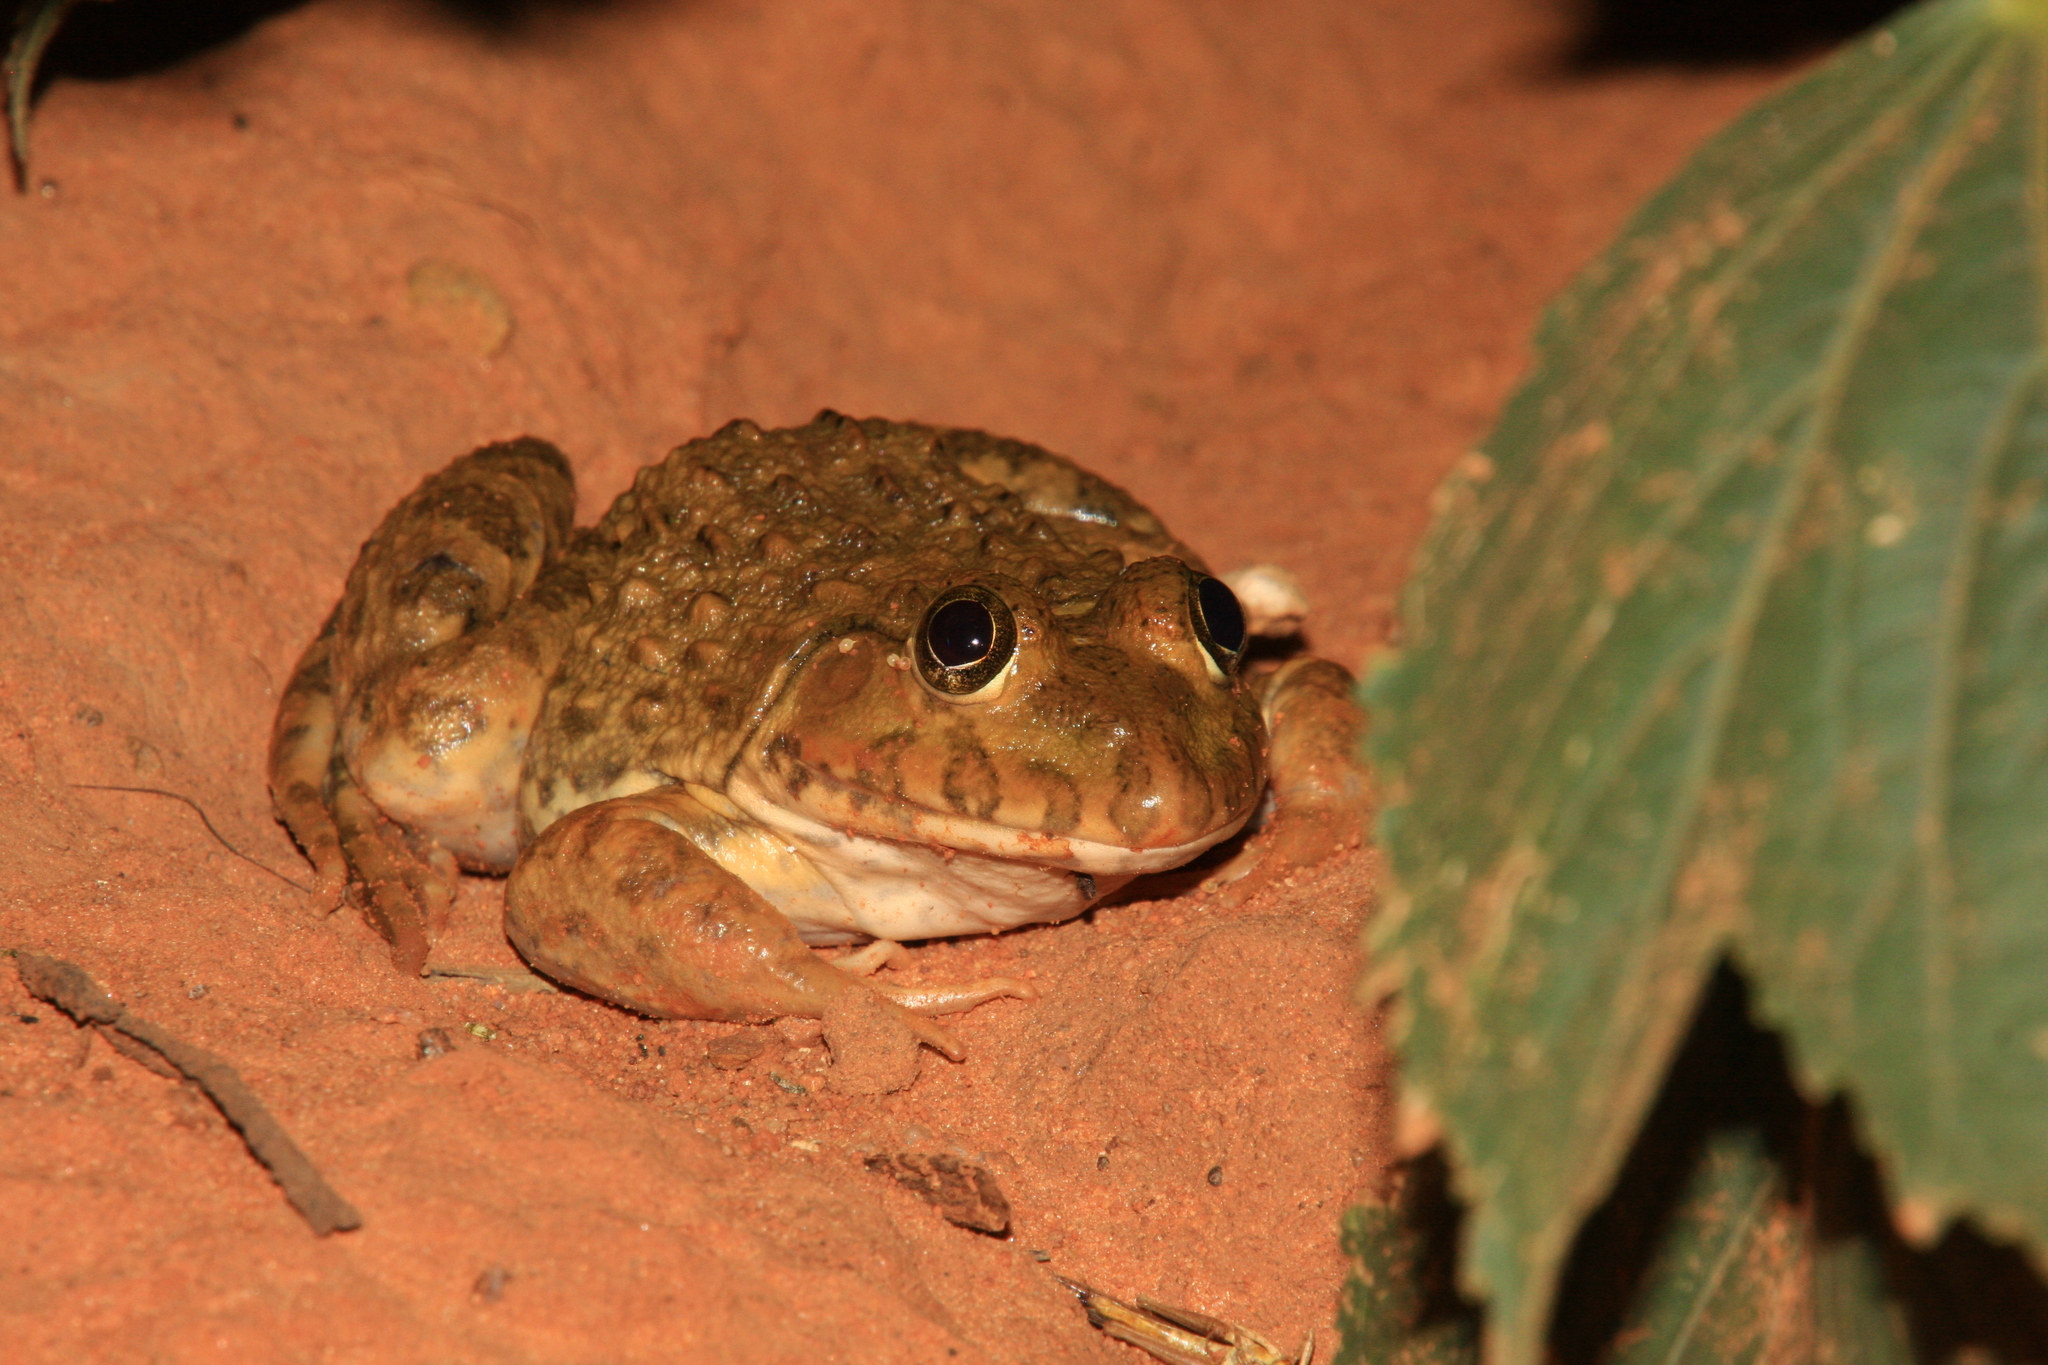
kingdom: Animalia
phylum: Chordata
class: Amphibia
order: Anura
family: Dicroglossidae
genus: Hoplobatrachus
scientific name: Hoplobatrachus occipitalis
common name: Eastern groove-crowned bullfrog
